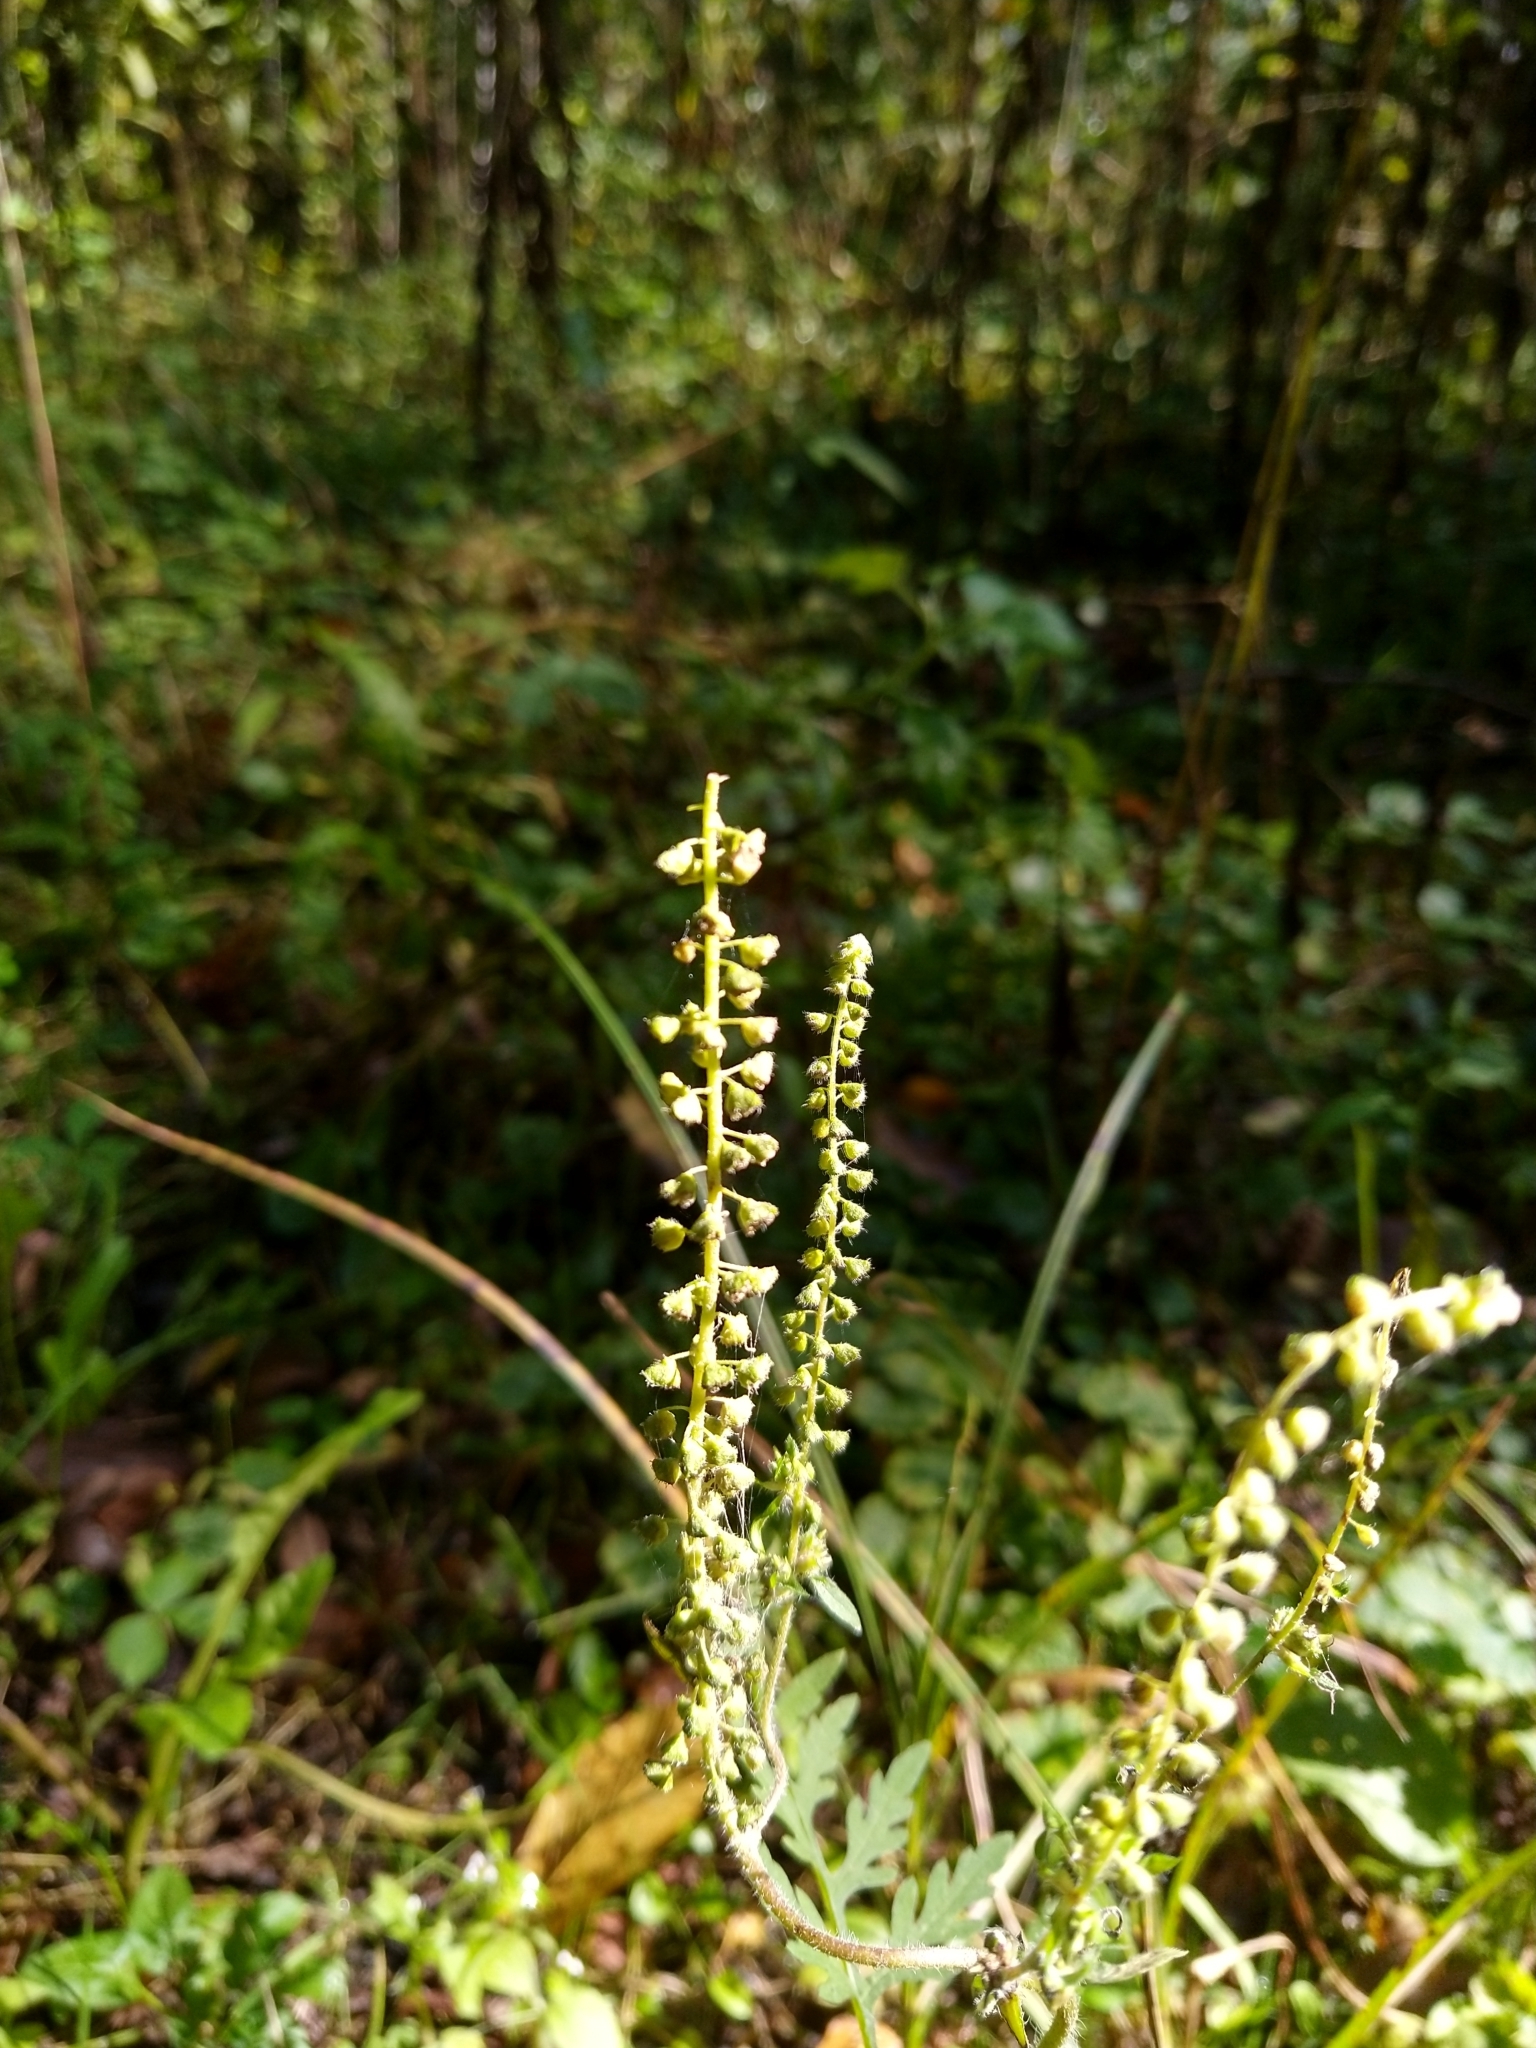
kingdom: Plantae
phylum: Tracheophyta
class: Magnoliopsida
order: Asterales
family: Asteraceae
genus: Ambrosia
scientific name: Ambrosia artemisiifolia
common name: Annual ragweed
